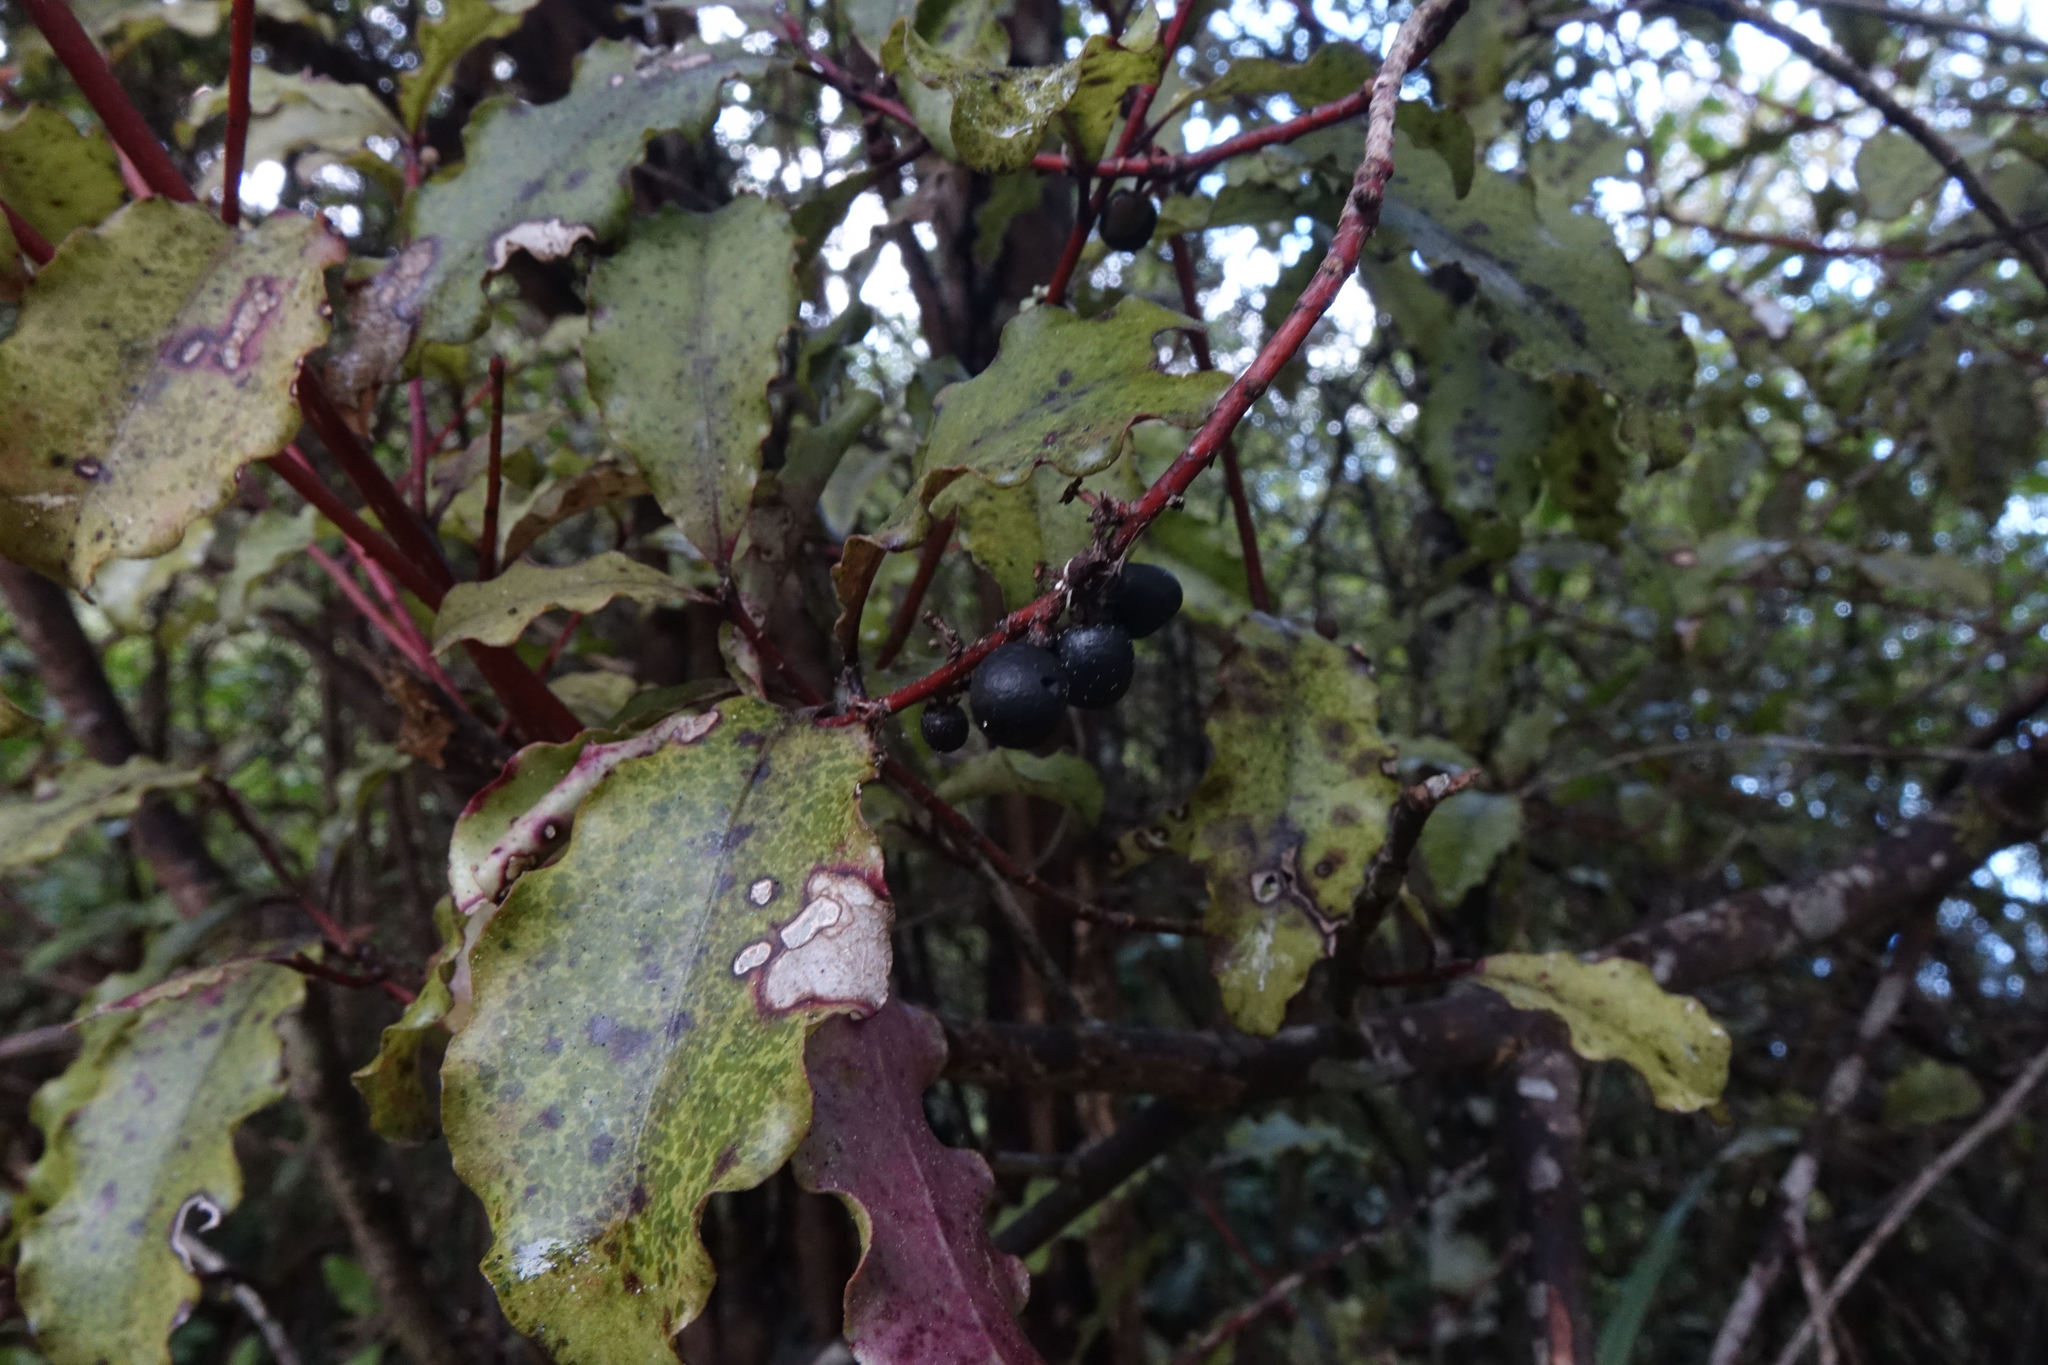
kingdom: Plantae
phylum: Tracheophyta
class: Magnoliopsida
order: Ericales
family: Primulaceae
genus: Myrsine
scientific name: Myrsine australis
